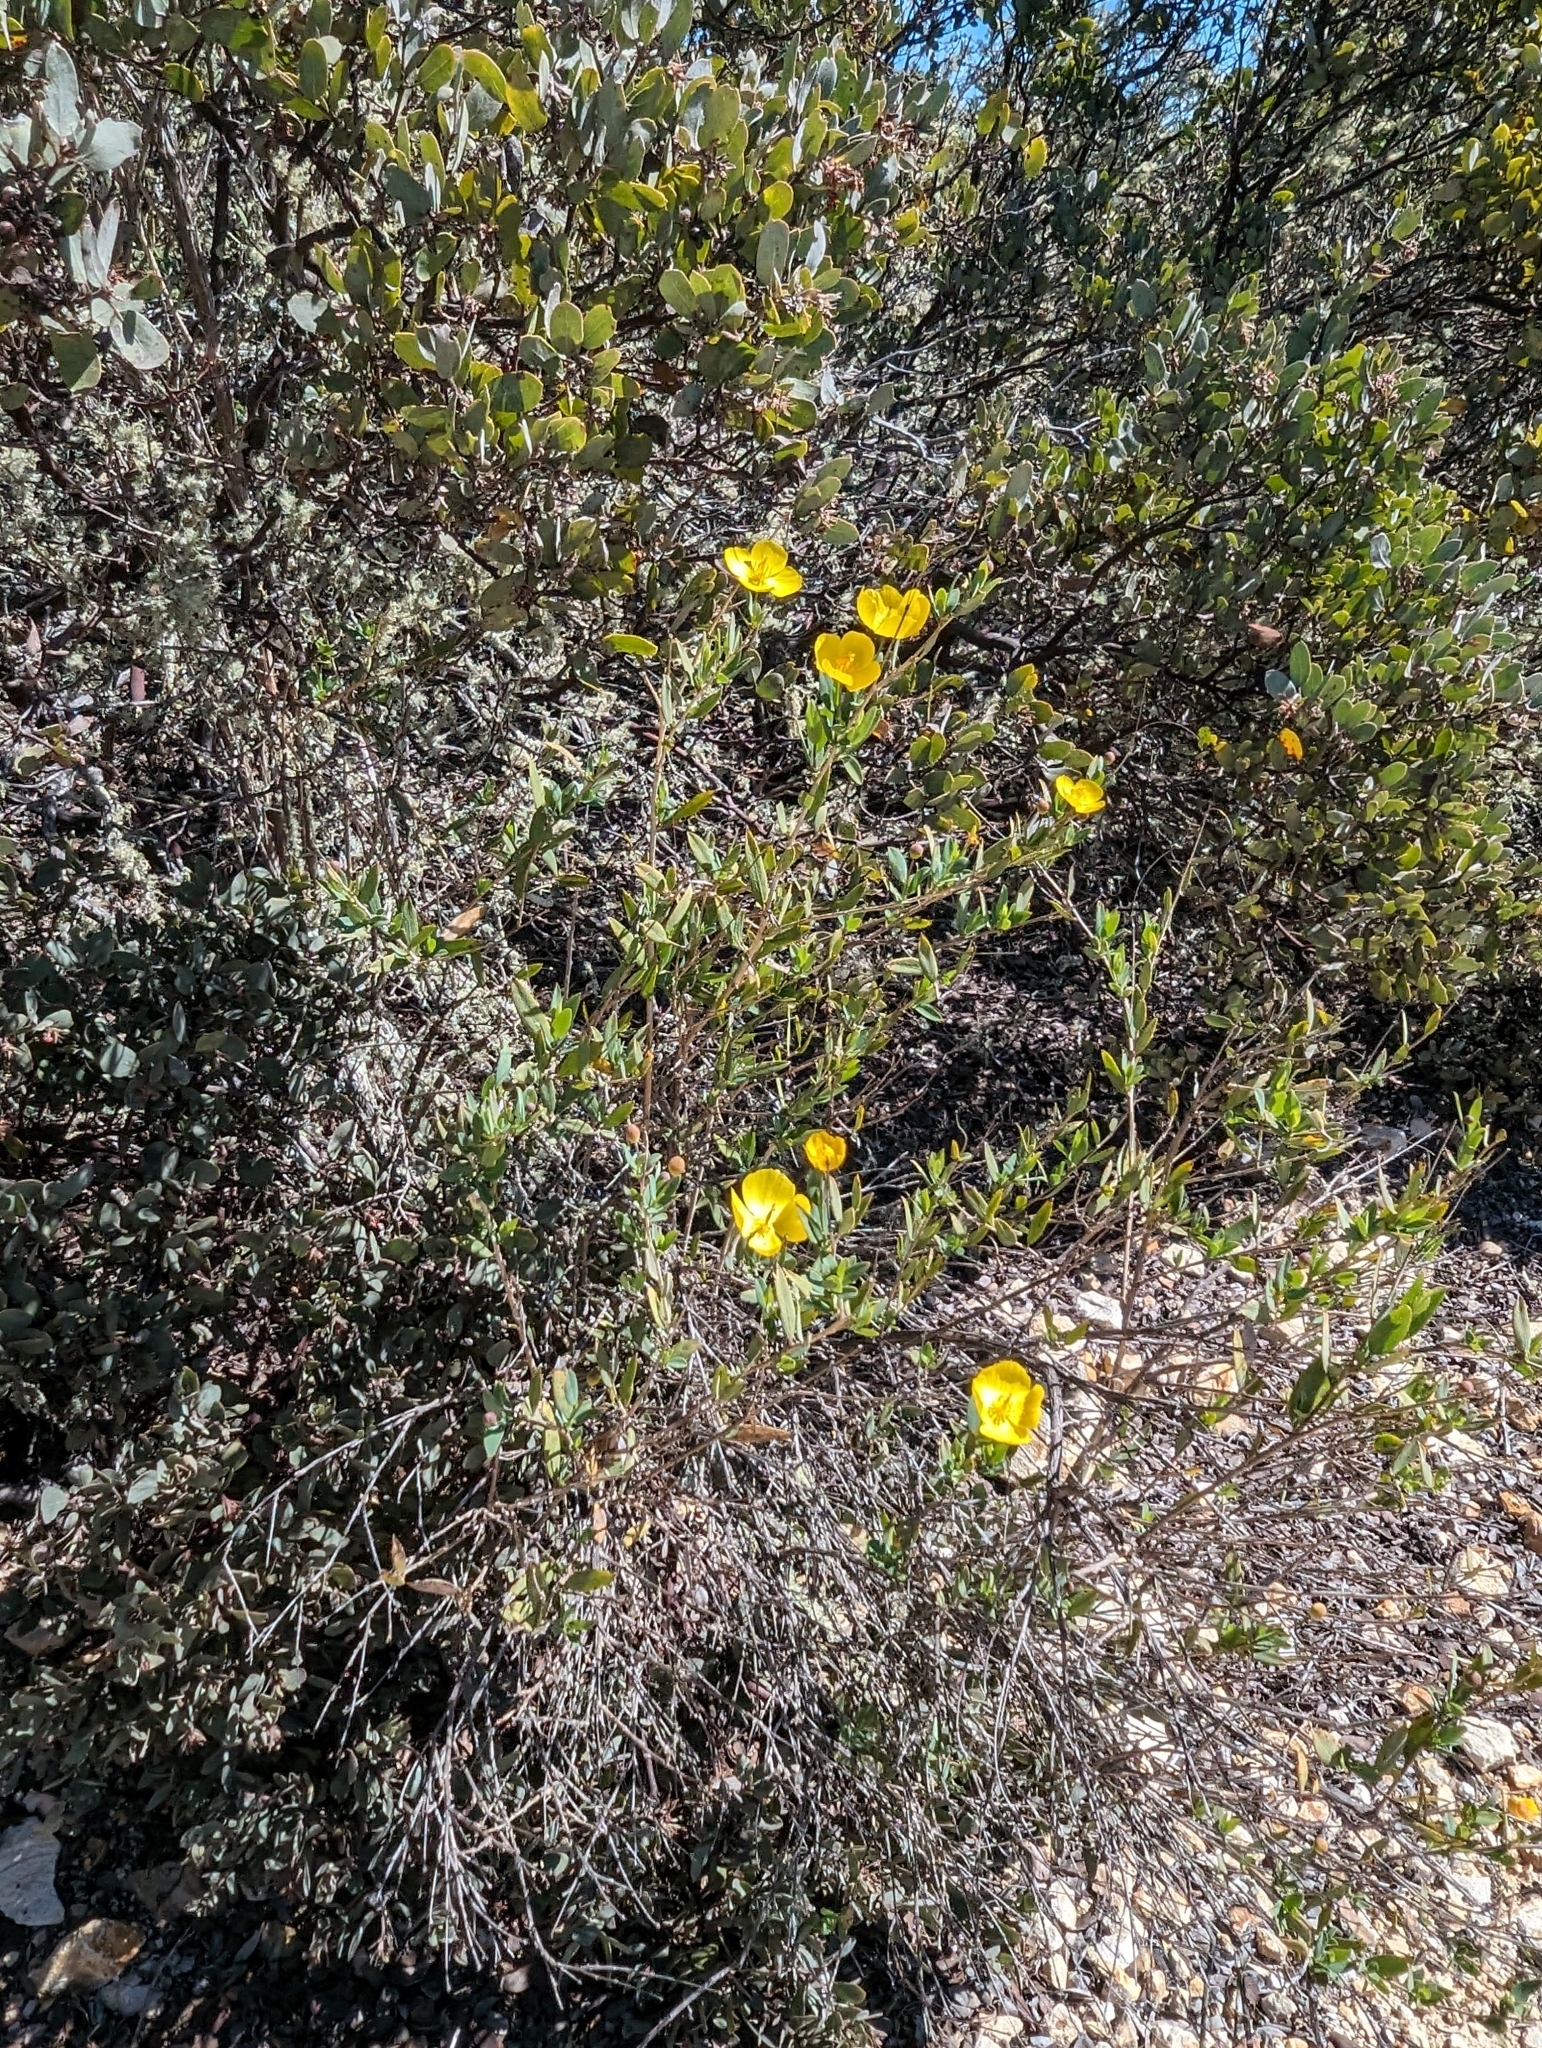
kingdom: Plantae
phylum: Tracheophyta
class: Magnoliopsida
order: Ranunculales
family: Papaveraceae
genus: Dendromecon
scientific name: Dendromecon rigida
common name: Tree poppy
